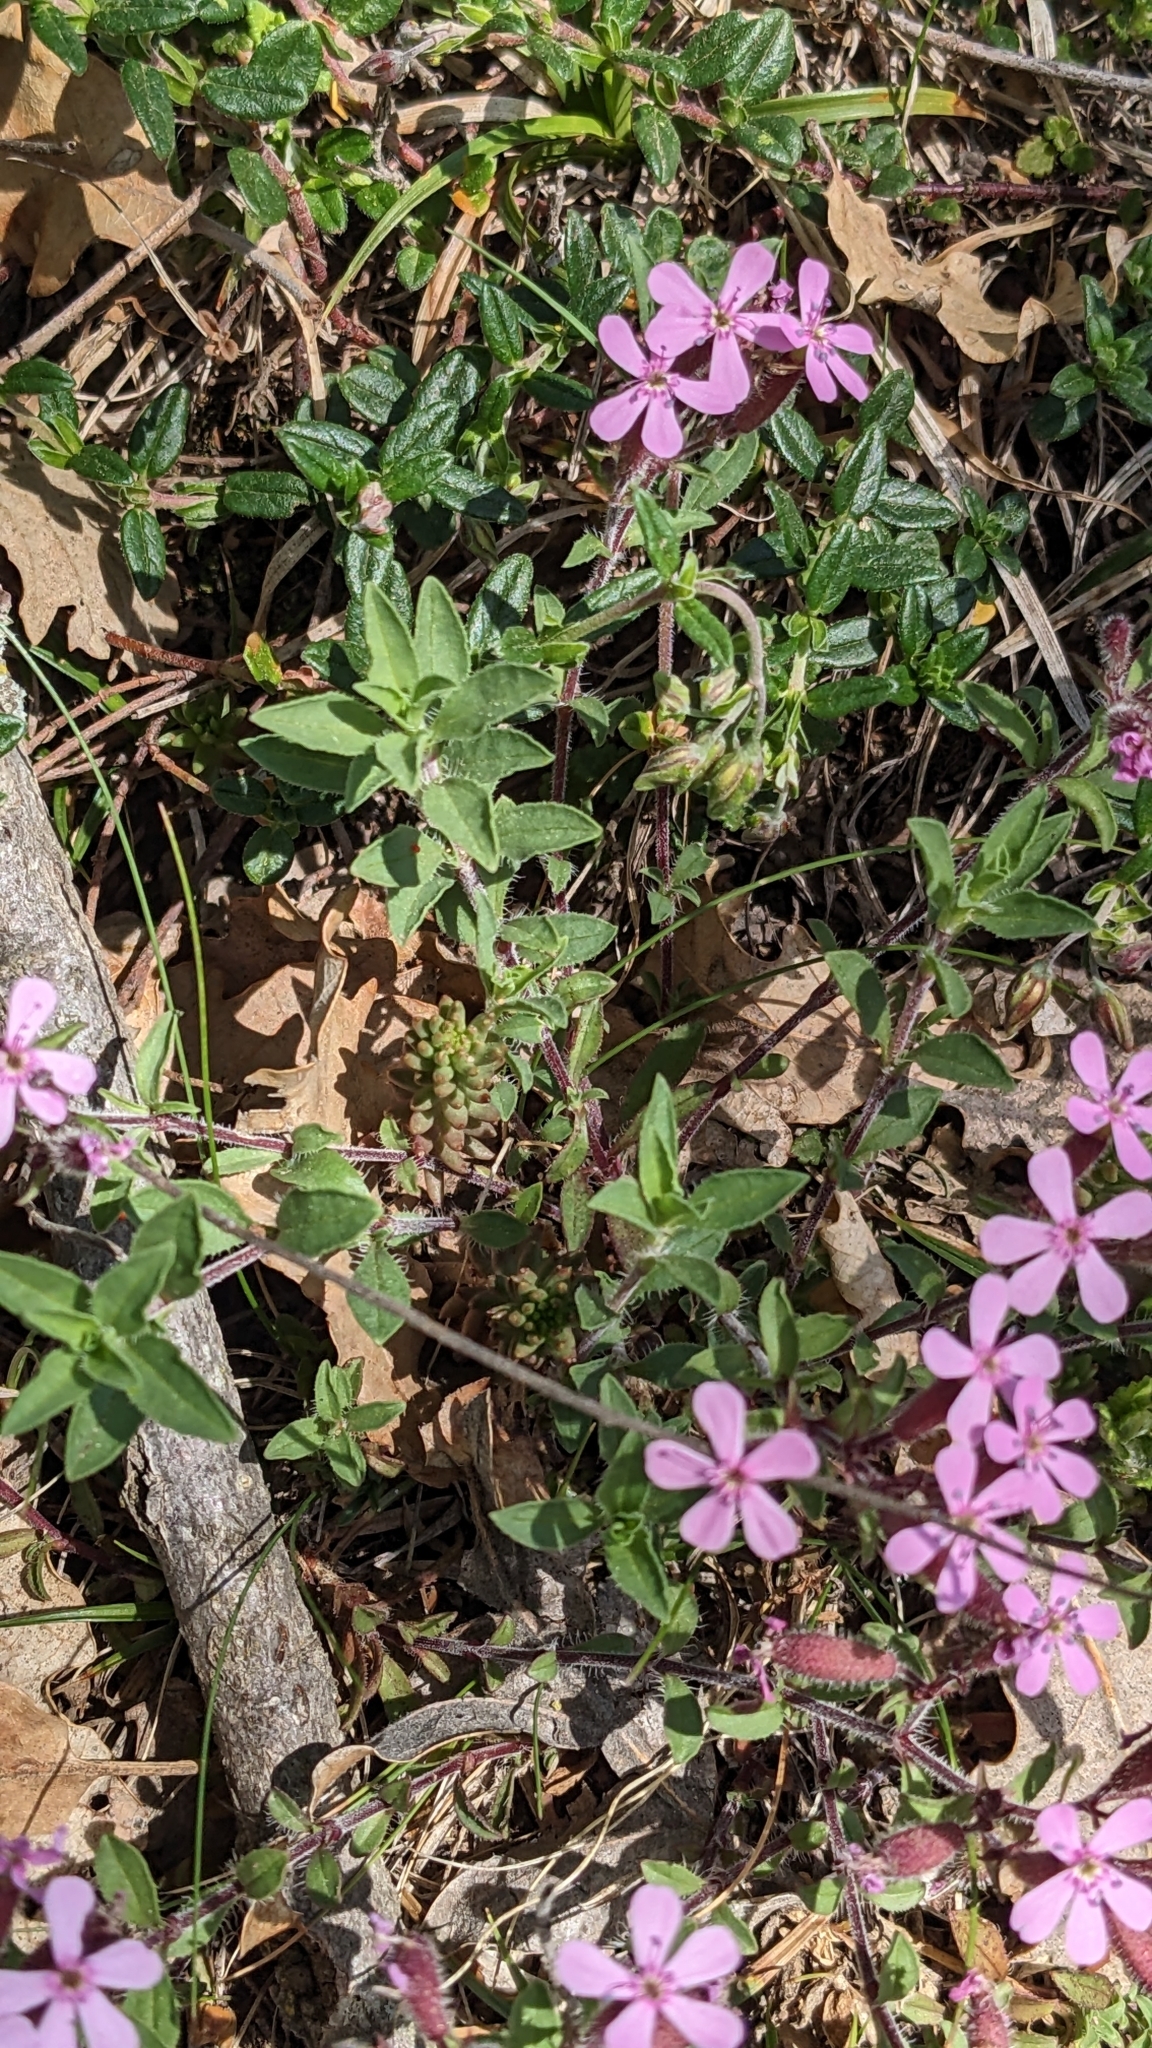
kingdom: Plantae
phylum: Tracheophyta
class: Magnoliopsida
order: Caryophyllales
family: Caryophyllaceae
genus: Saponaria
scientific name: Saponaria ocymoides
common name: Rock soapwort
